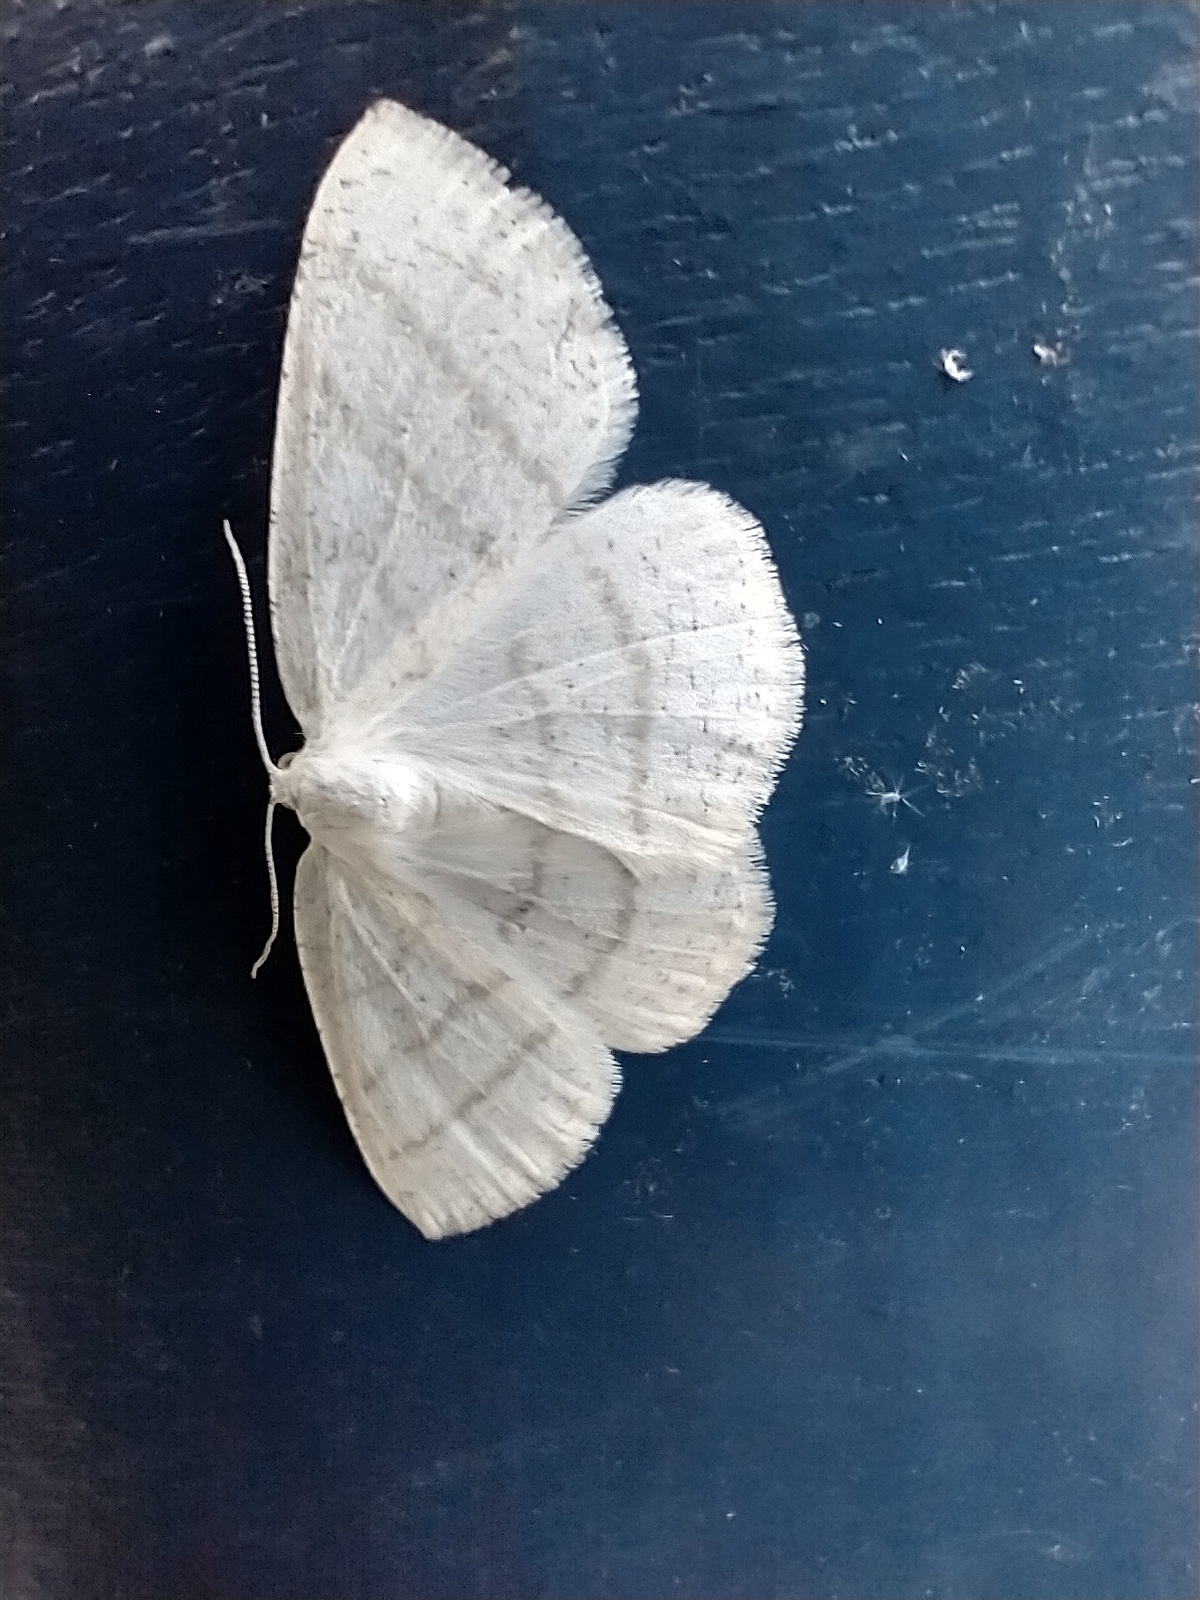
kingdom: Animalia
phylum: Arthropoda
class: Insecta
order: Lepidoptera
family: Geometridae
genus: Cabera
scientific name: Cabera pusaria
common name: Common white wave
